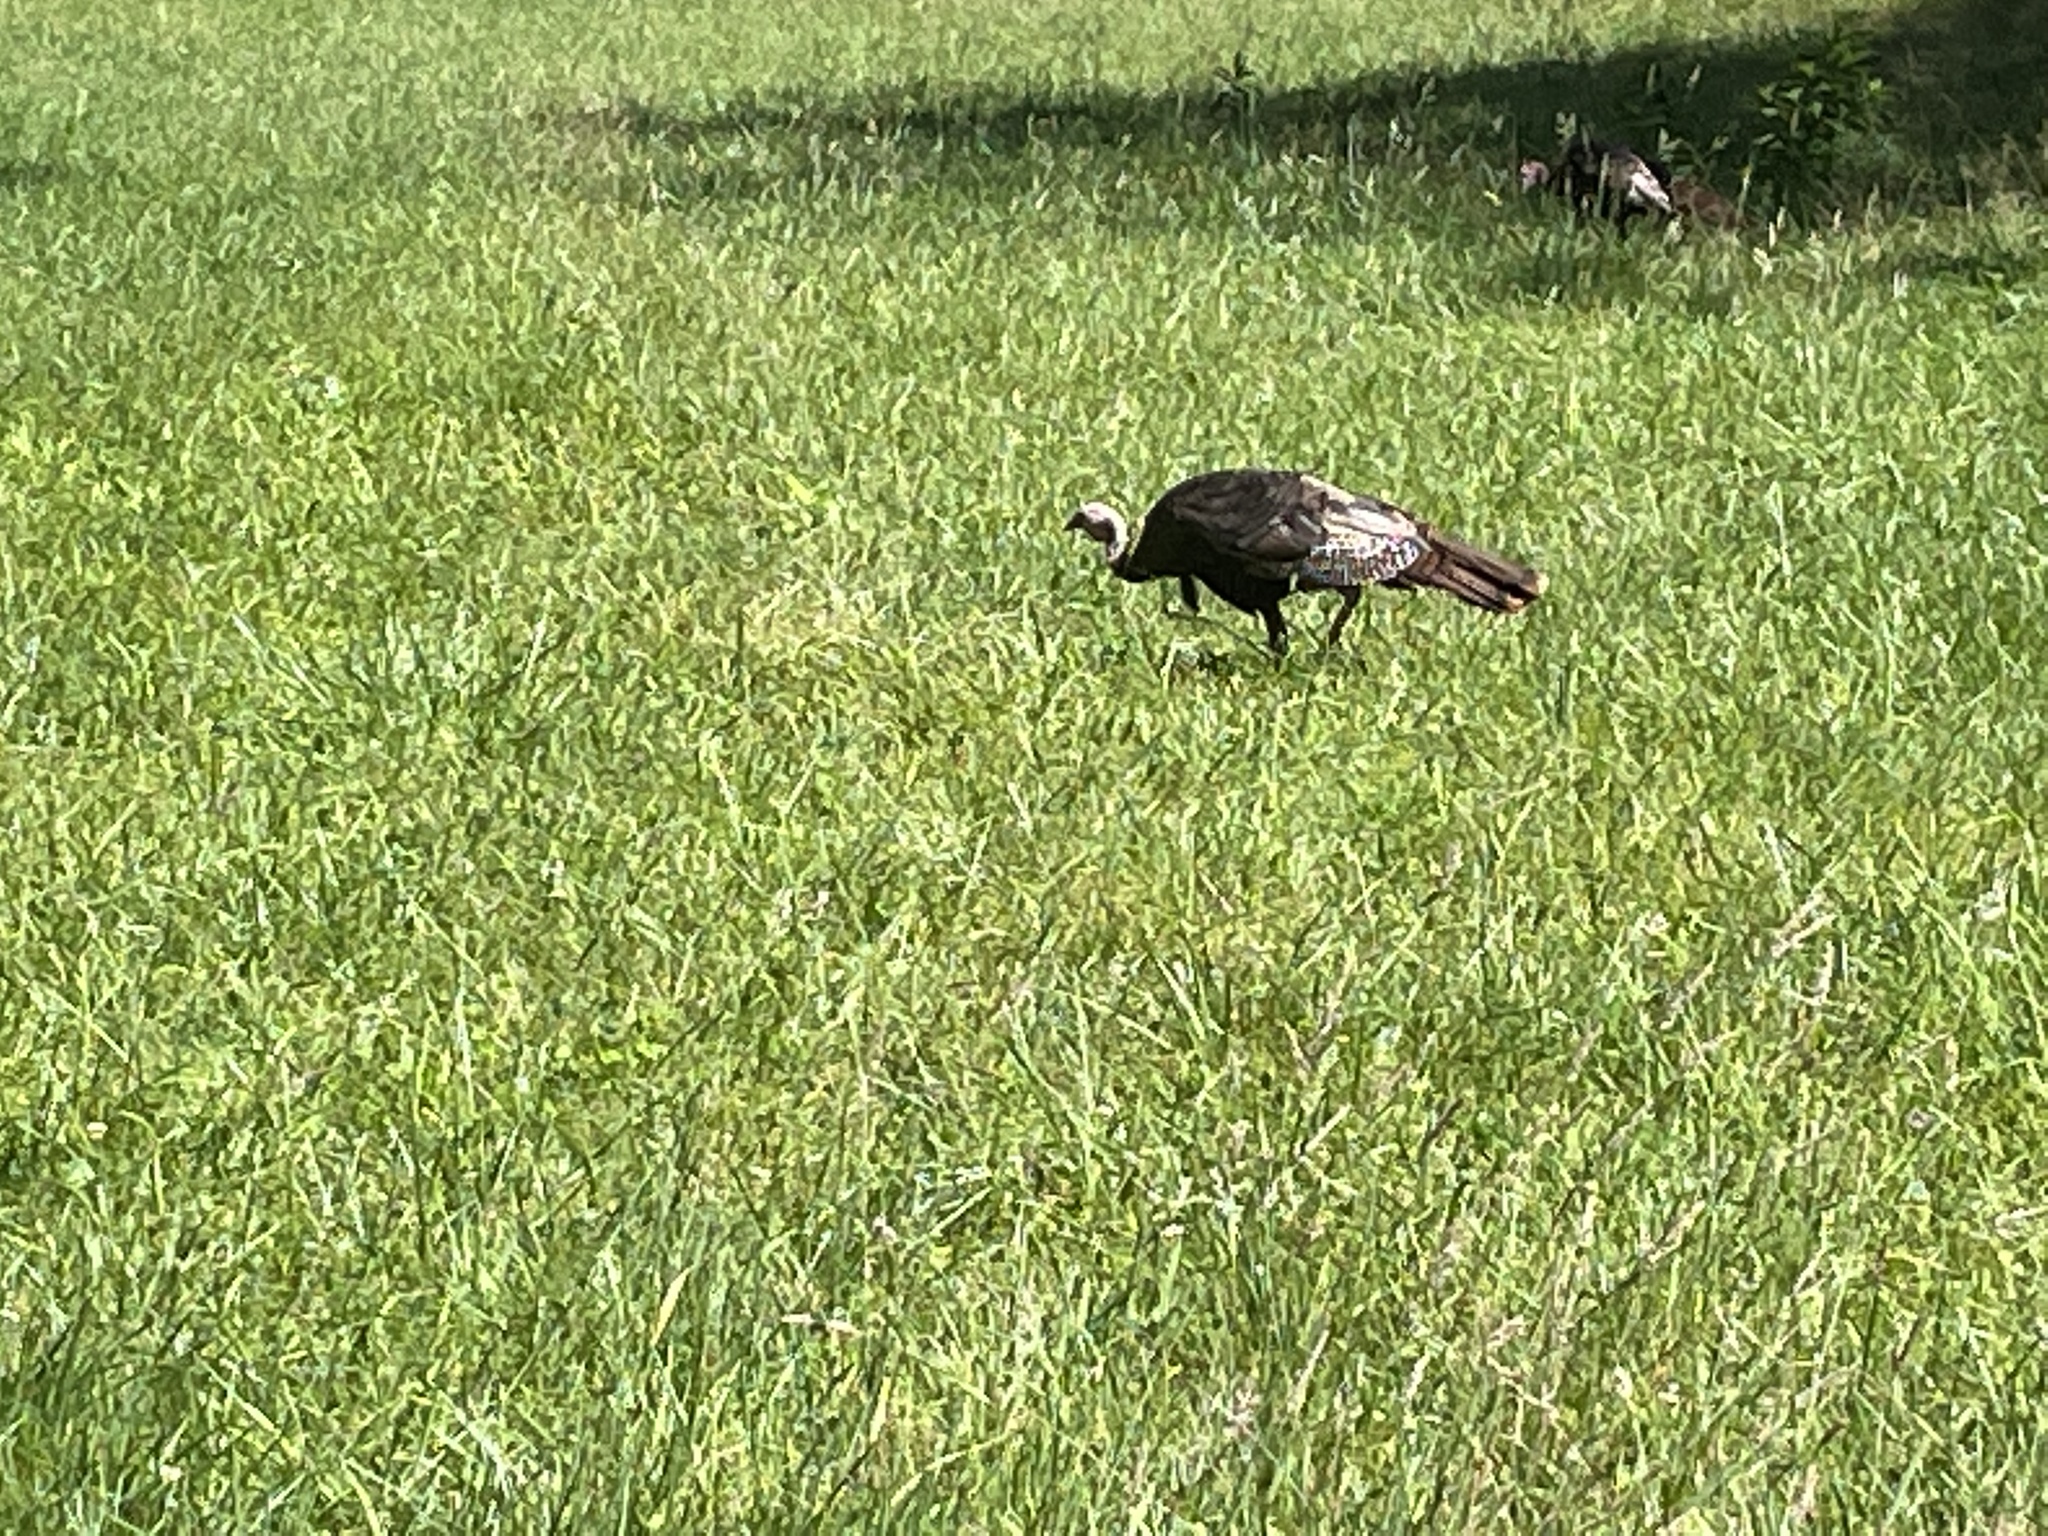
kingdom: Animalia
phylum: Chordata
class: Aves
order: Galliformes
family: Phasianidae
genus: Meleagris
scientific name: Meleagris gallopavo
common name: Wild turkey
